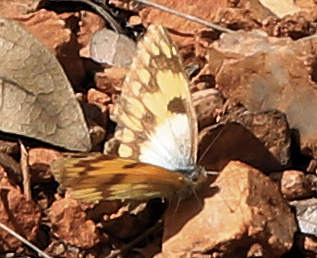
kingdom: Animalia
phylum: Arthropoda
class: Insecta
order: Lepidoptera
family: Pieridae
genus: Colotis
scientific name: Colotis vesta
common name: Veined golden arab
